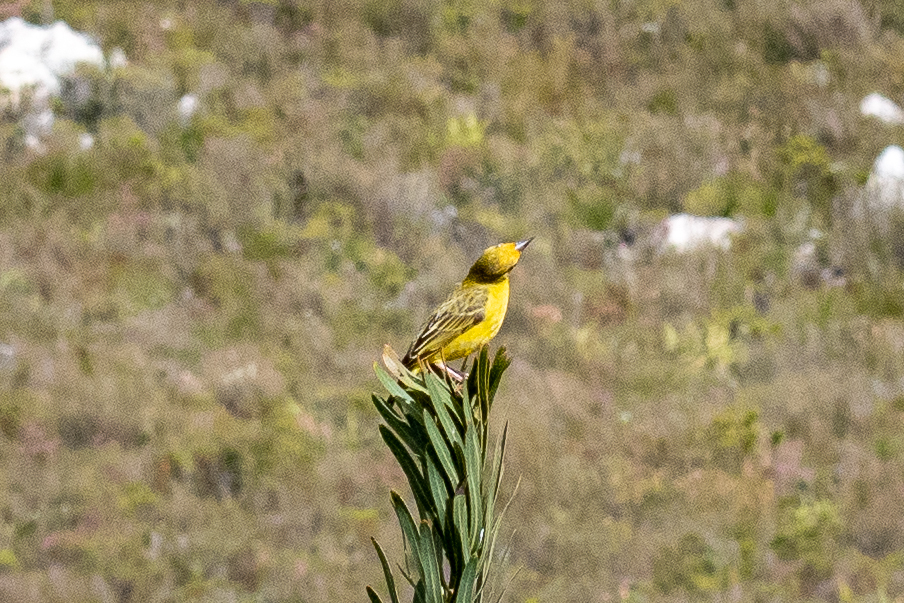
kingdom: Animalia
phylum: Chordata
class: Aves
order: Passeriformes
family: Ploceidae
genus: Ploceus
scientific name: Ploceus capensis
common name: Cape weaver
